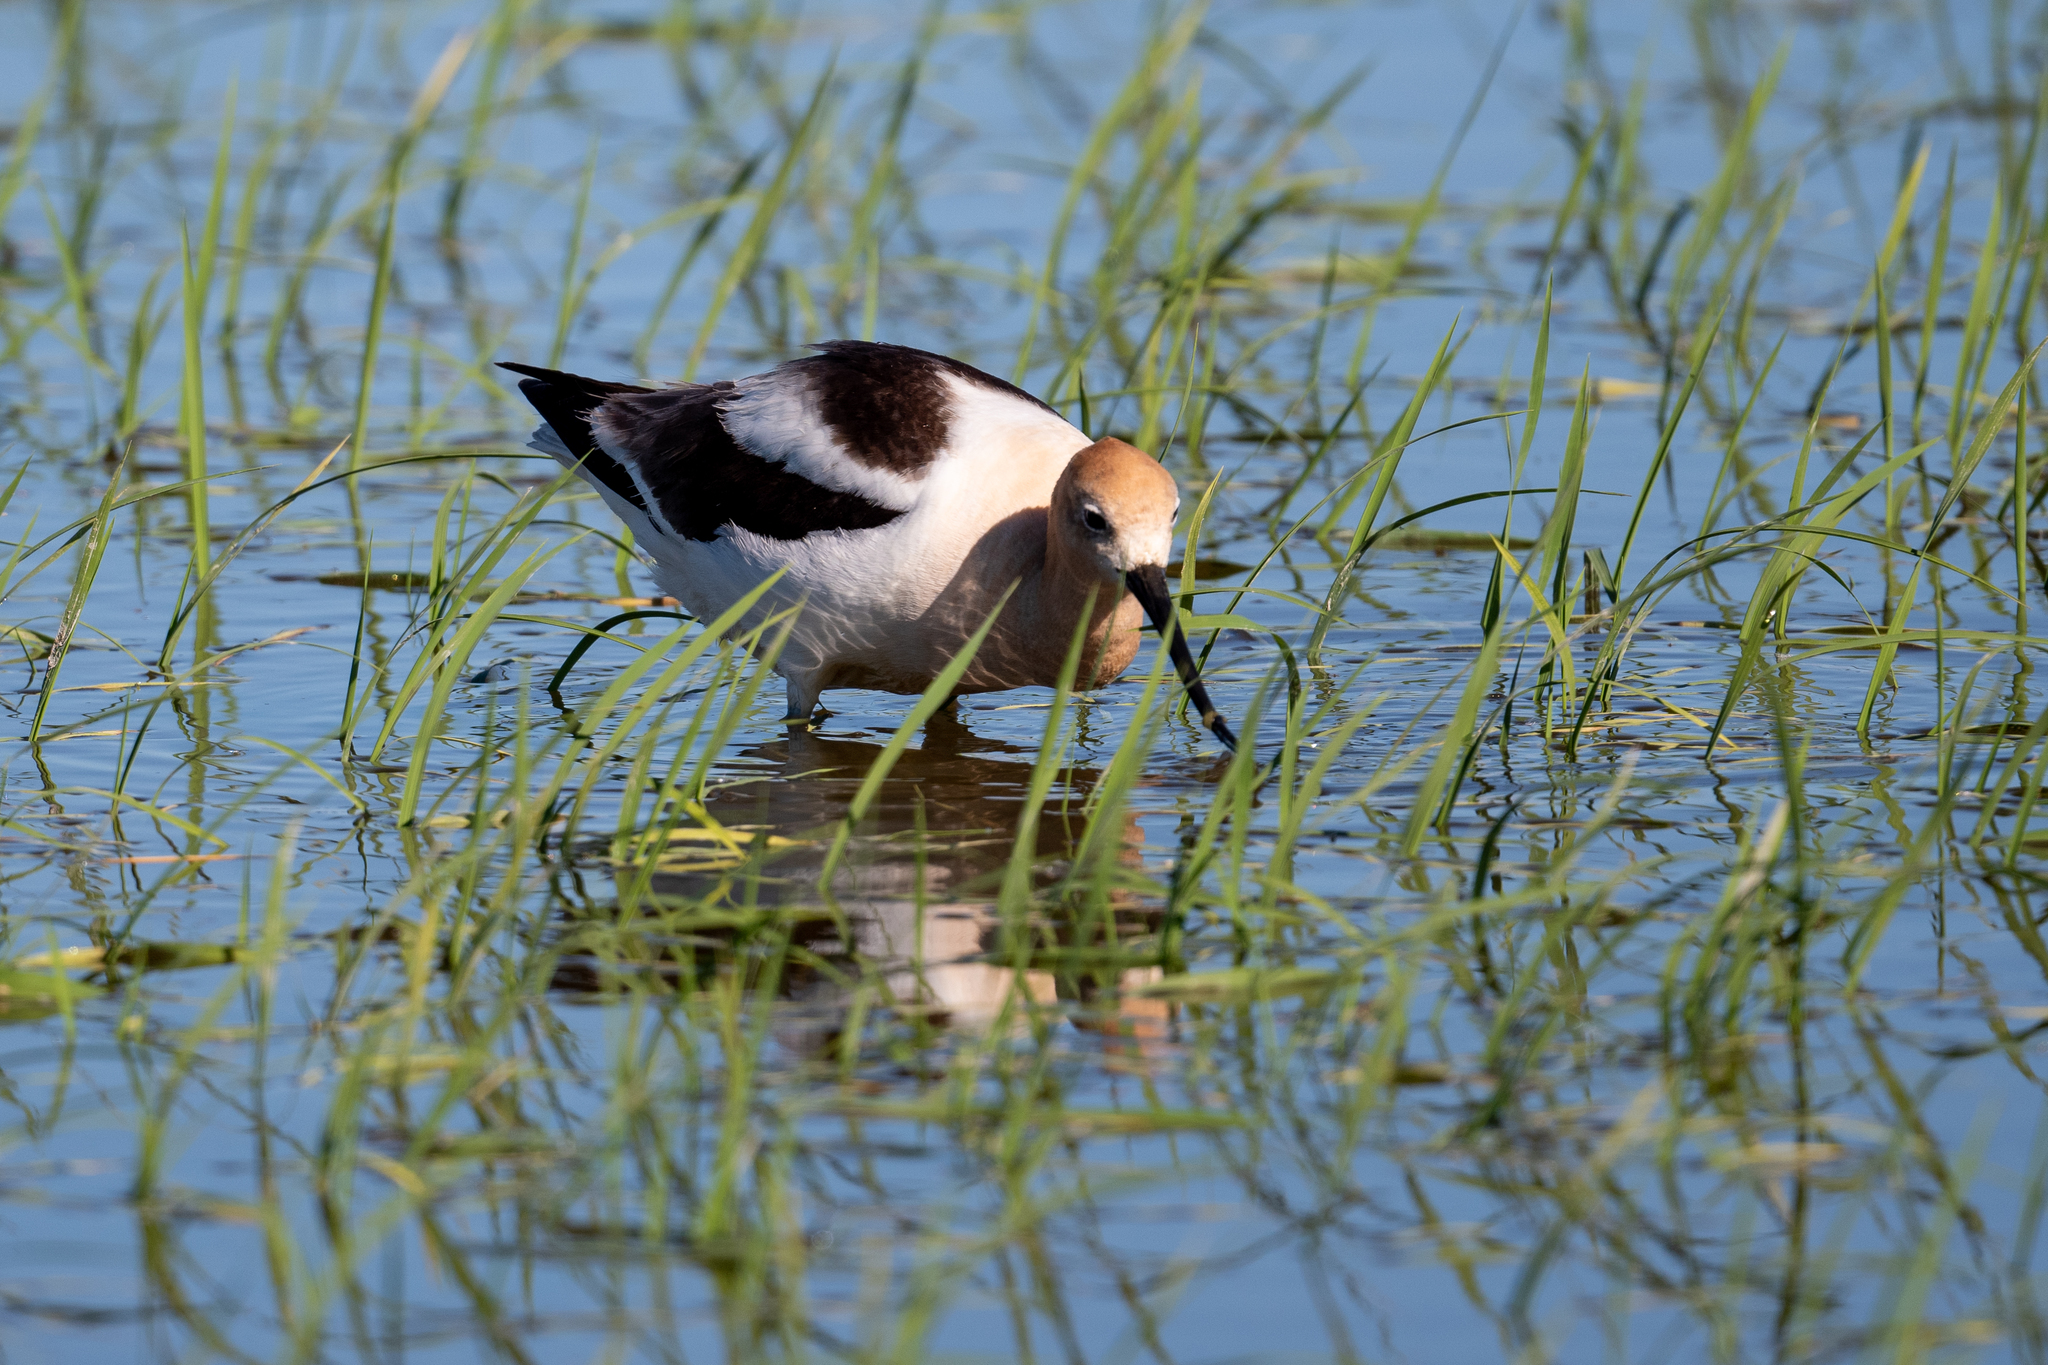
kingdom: Animalia
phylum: Chordata
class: Aves
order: Charadriiformes
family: Recurvirostridae
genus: Recurvirostra
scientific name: Recurvirostra americana
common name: American avocet
